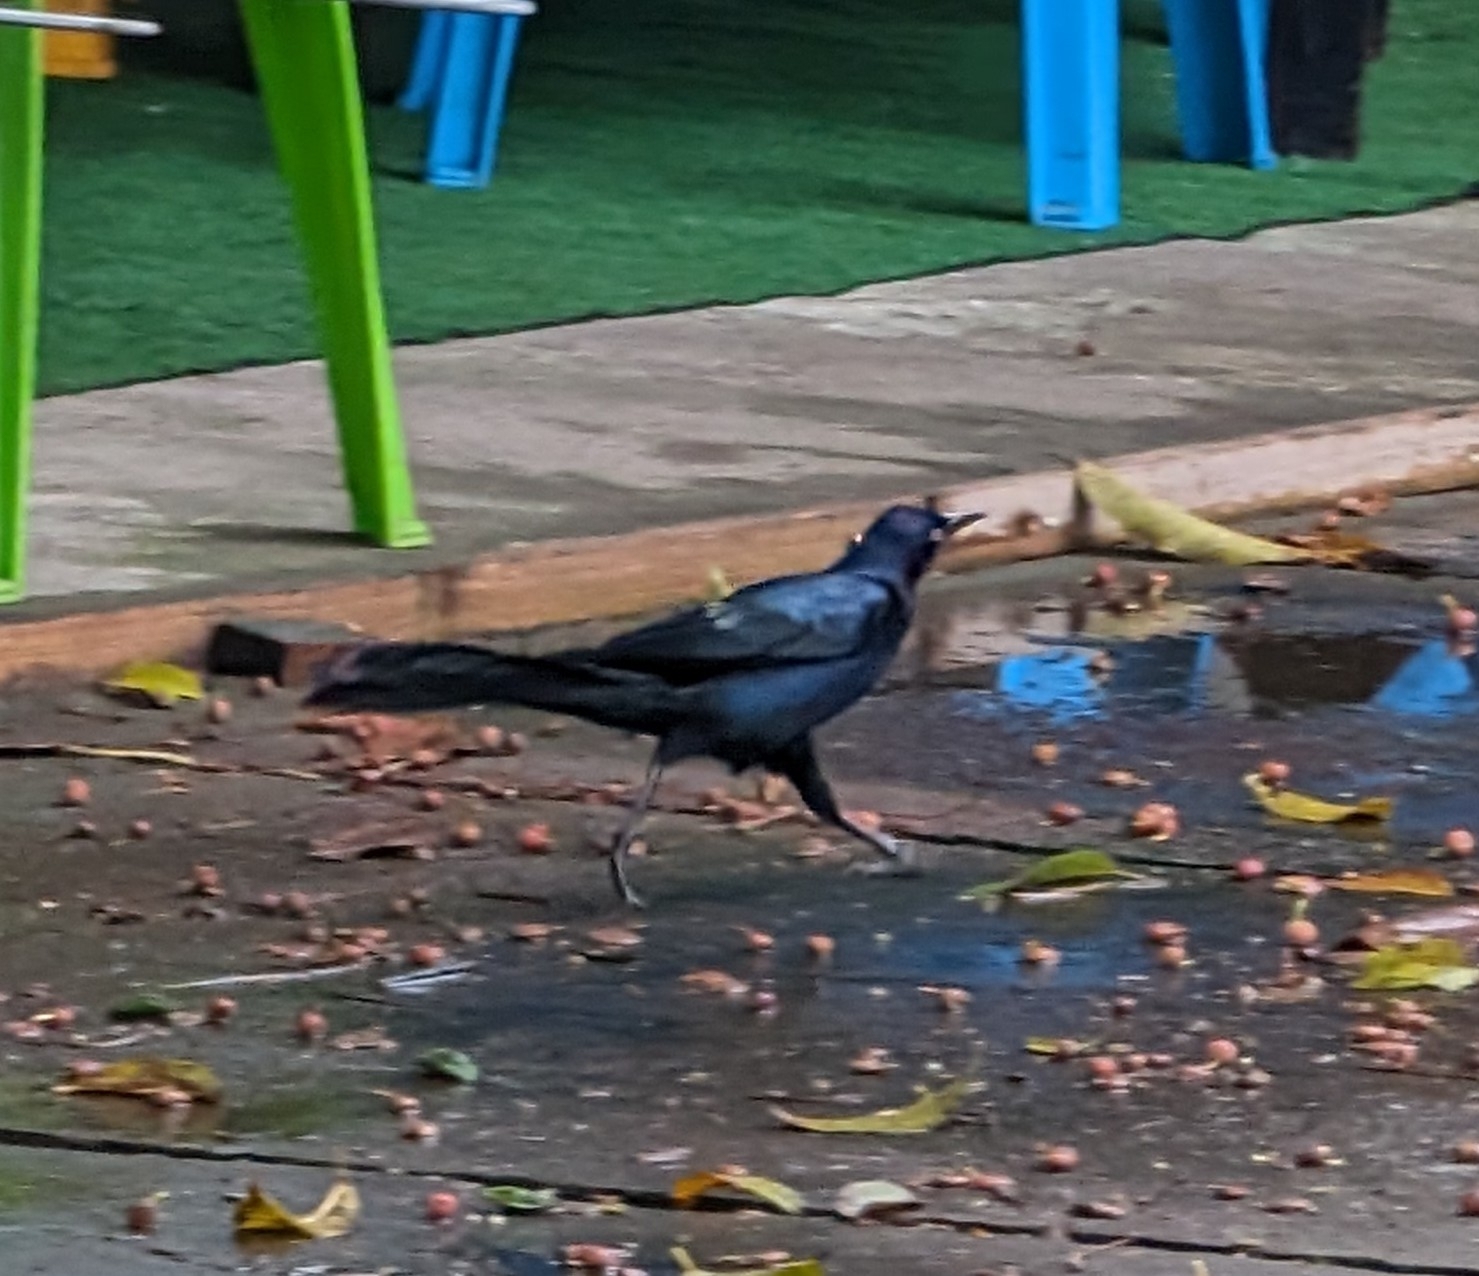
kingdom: Animalia
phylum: Chordata
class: Aves
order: Passeriformes
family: Icteridae
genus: Quiscalus
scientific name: Quiscalus mexicanus
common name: Great-tailed grackle
